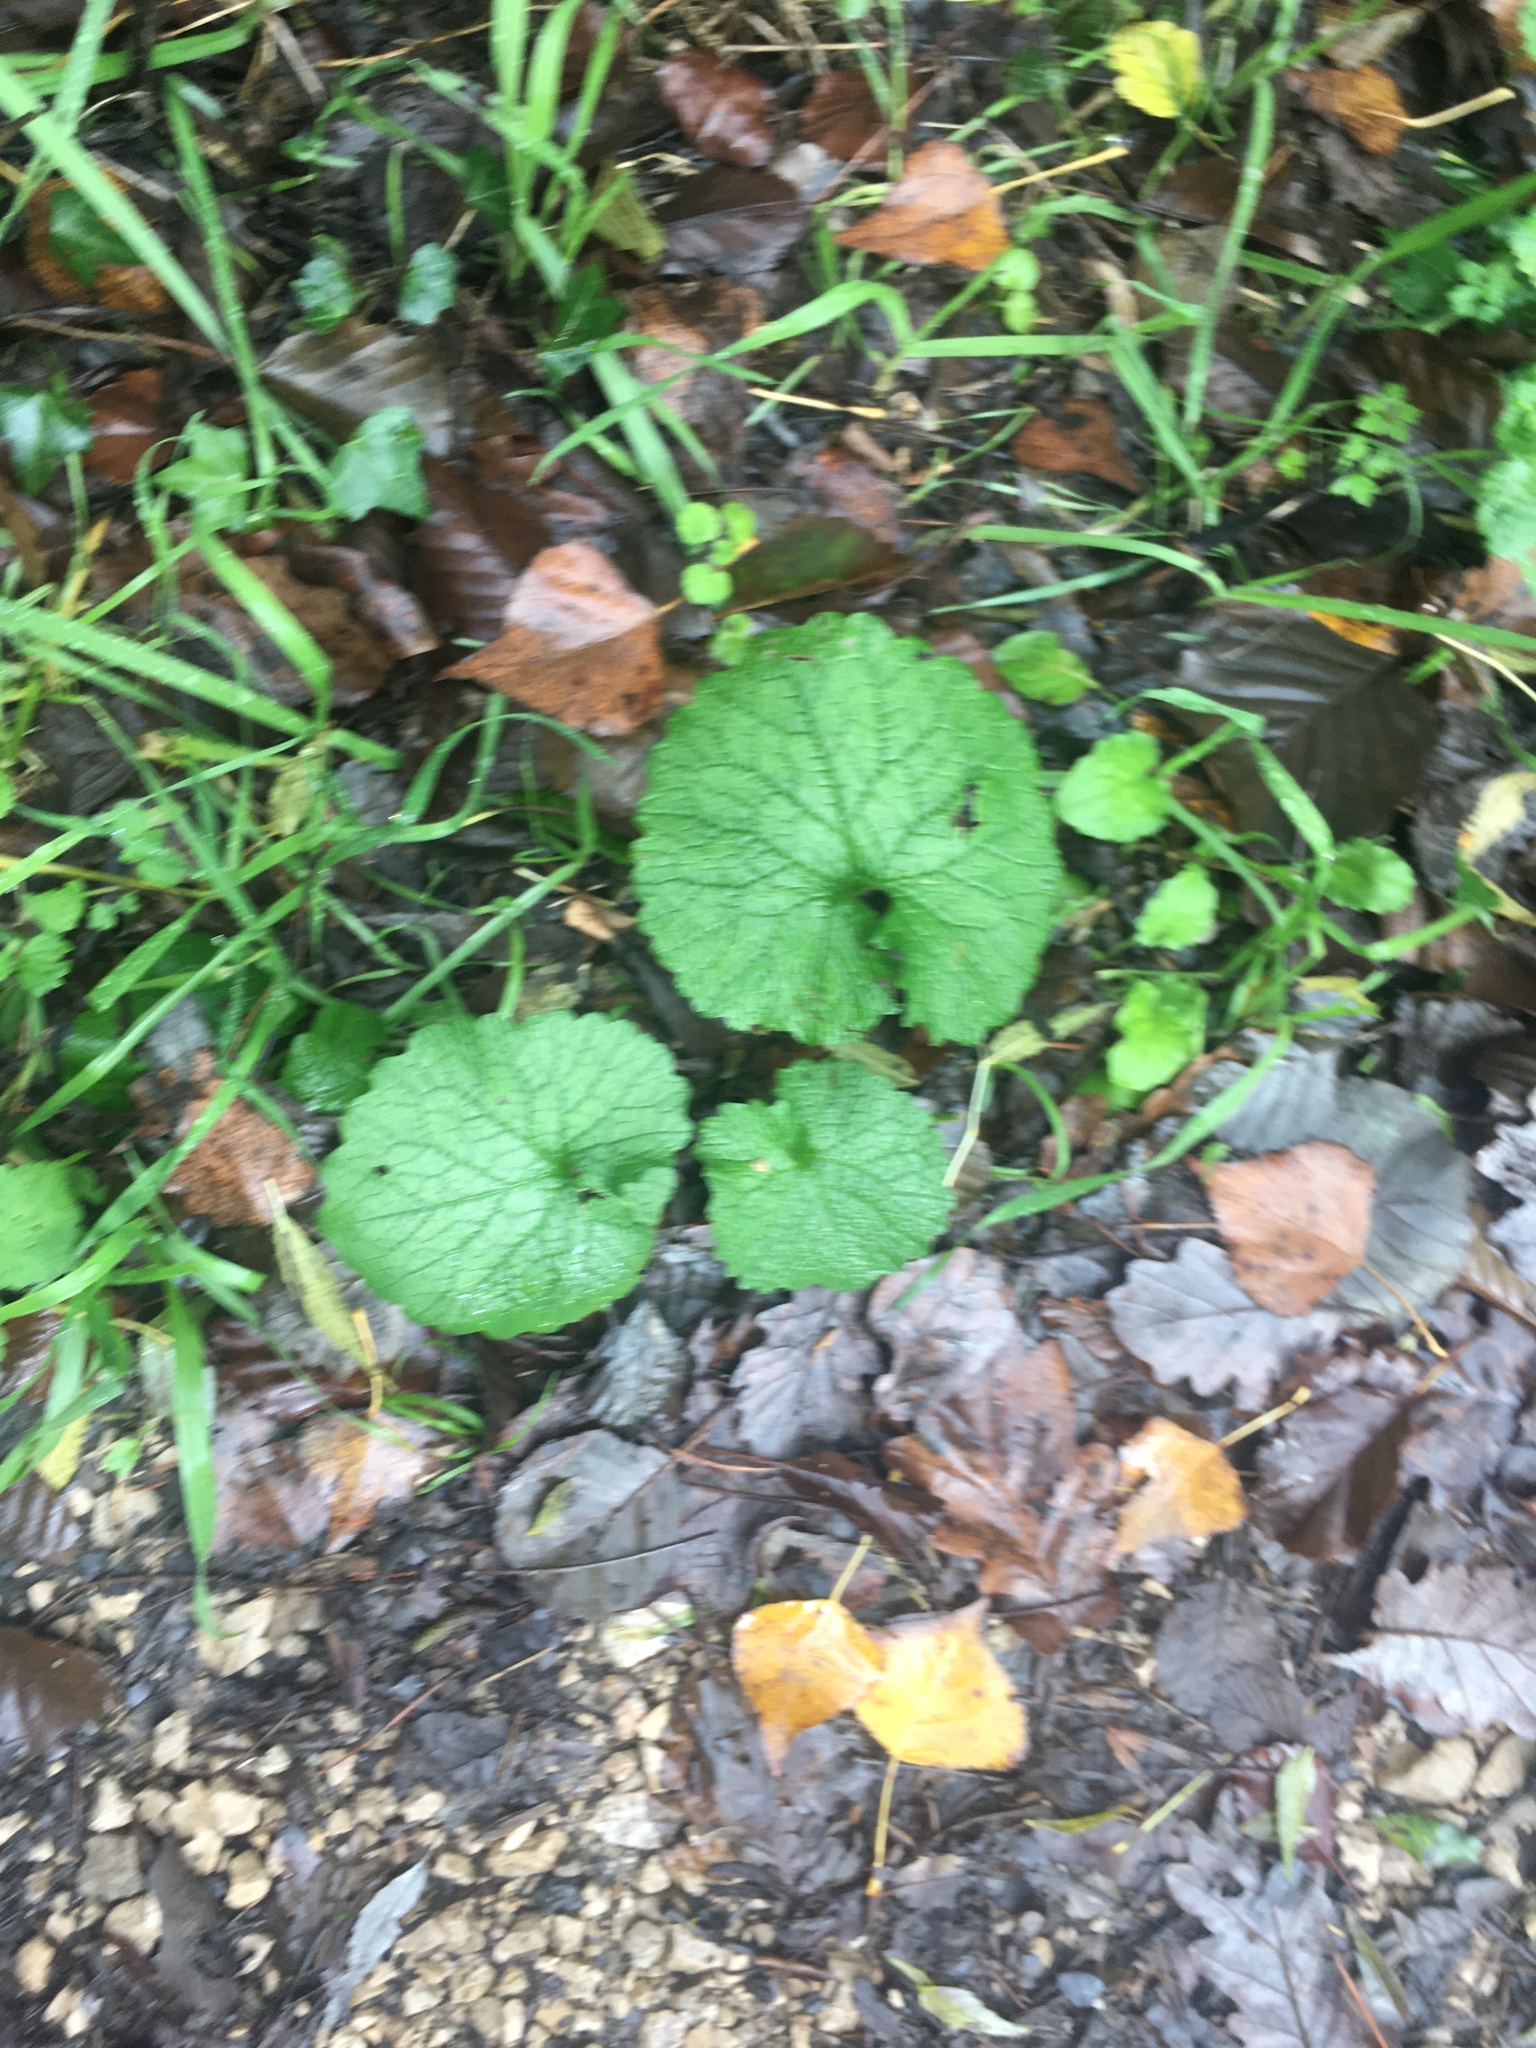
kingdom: Plantae
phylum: Tracheophyta
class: Magnoliopsida
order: Brassicales
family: Brassicaceae
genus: Alliaria
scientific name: Alliaria petiolata
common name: Garlic mustard
